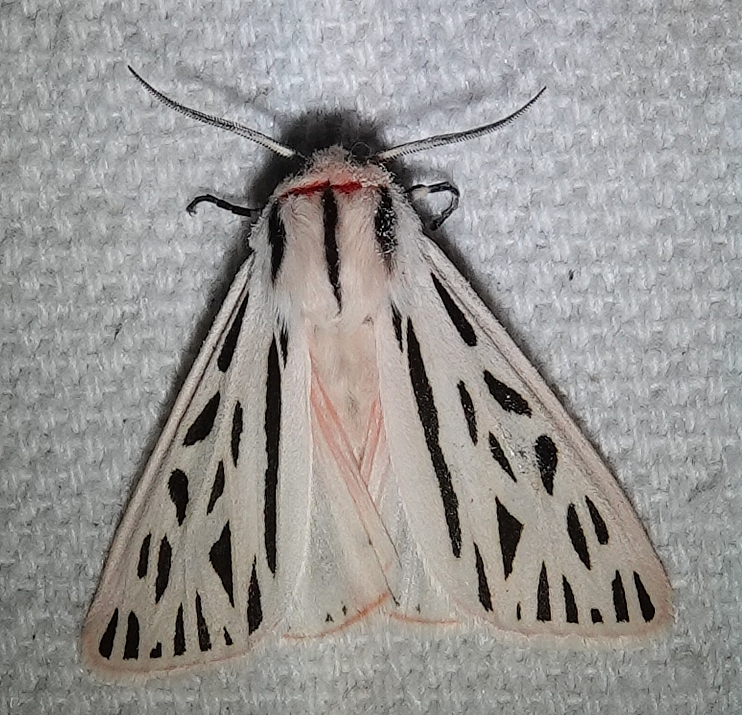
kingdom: Animalia
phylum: Arthropoda
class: Insecta
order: Lepidoptera
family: Erebidae
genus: Apantesis
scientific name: Apantesis arge
